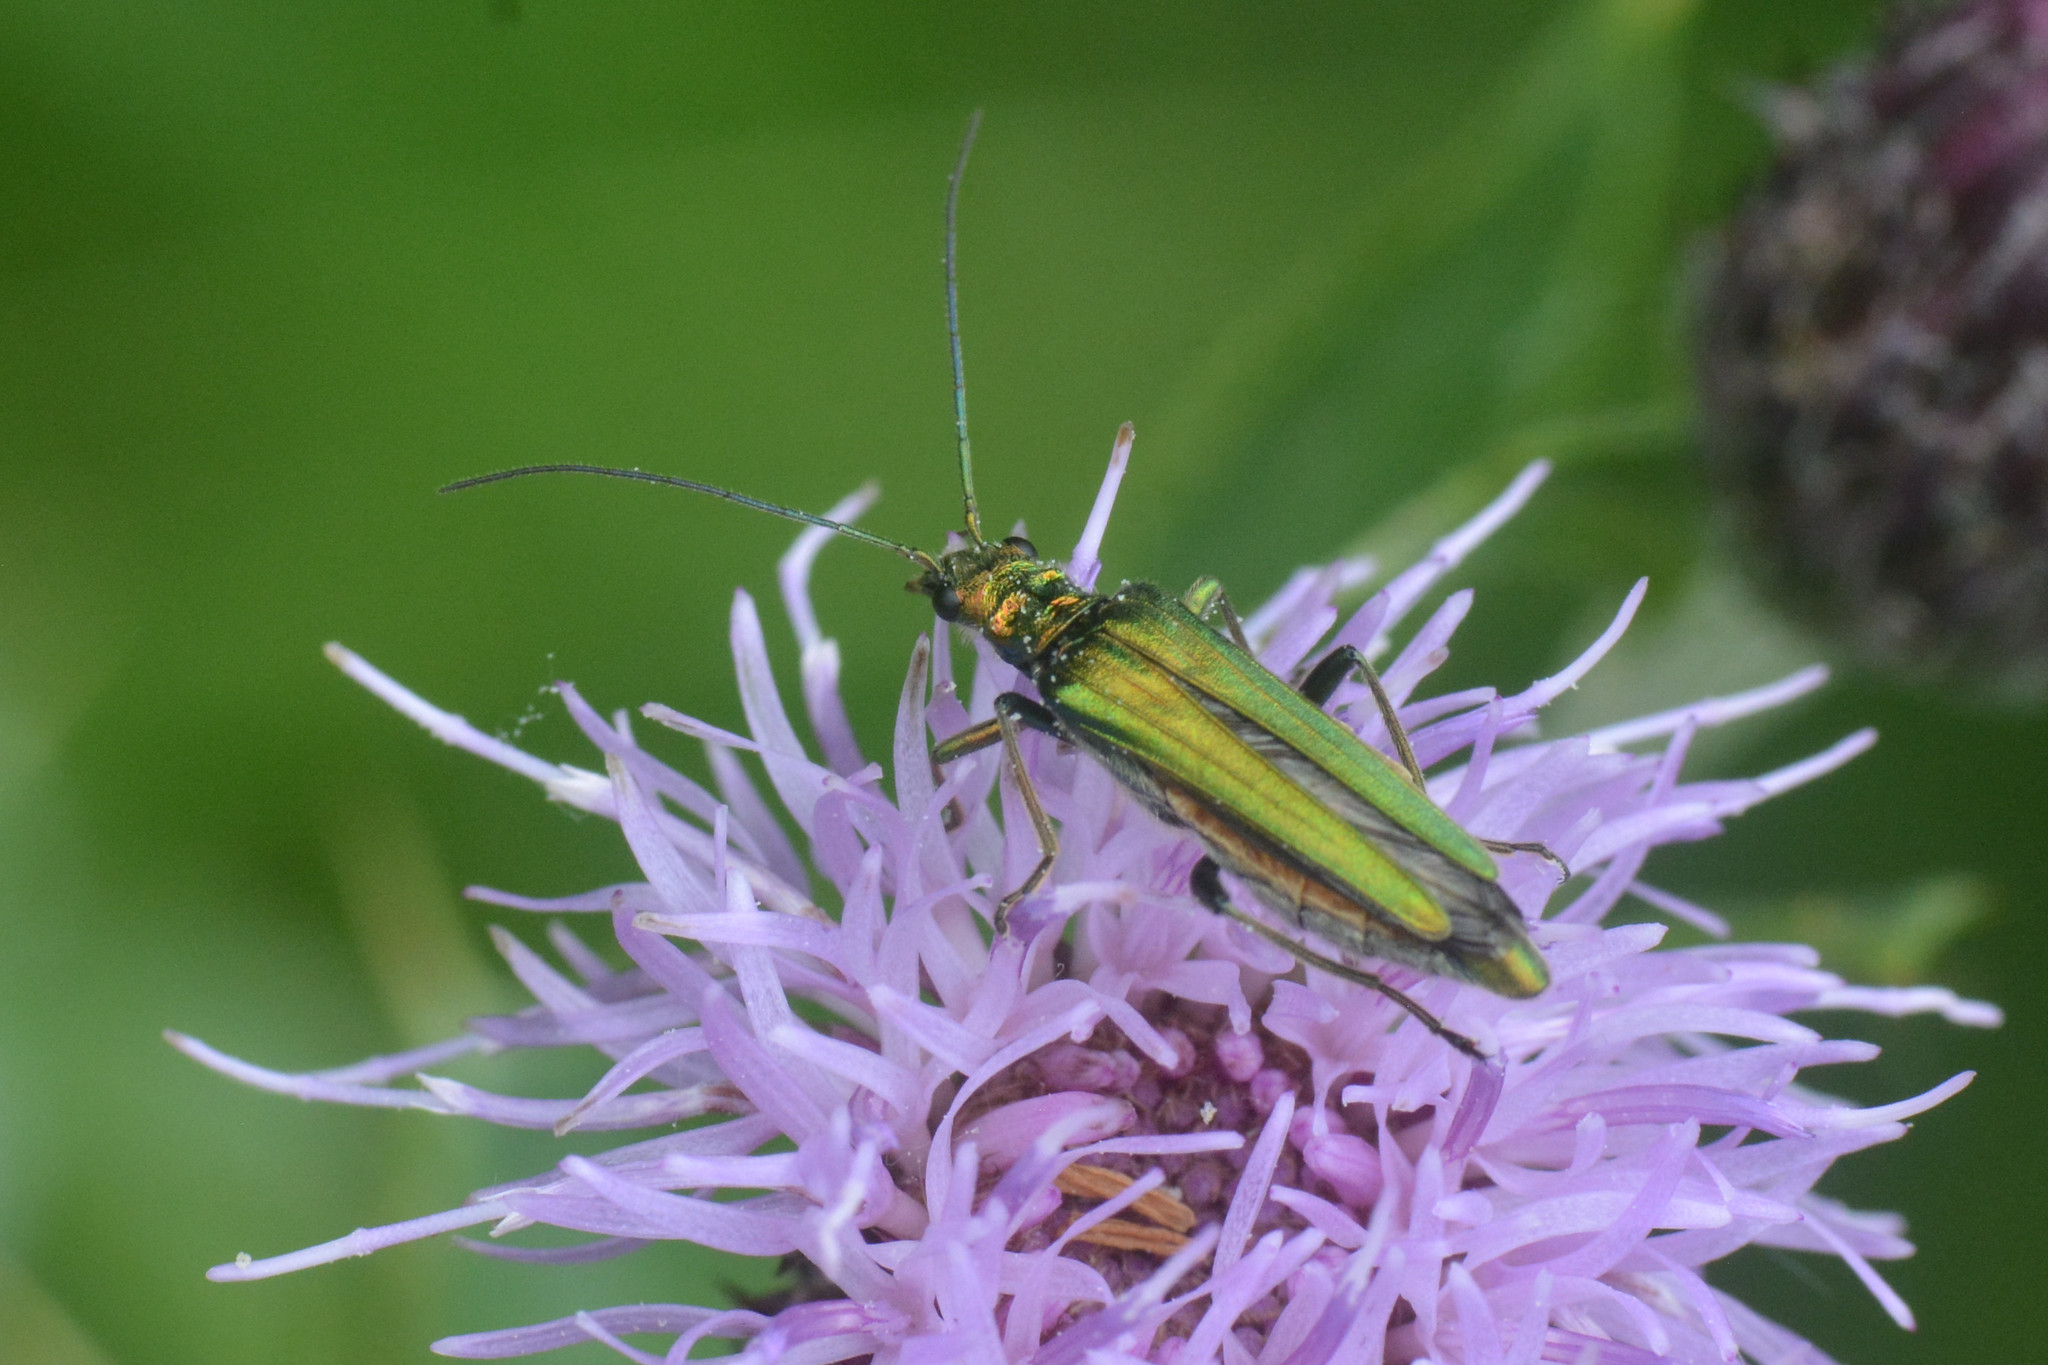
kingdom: Animalia
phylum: Arthropoda
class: Insecta
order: Coleoptera
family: Oedemeridae
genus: Oedemera
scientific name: Oedemera nobilis
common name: Swollen-thighed beetle
